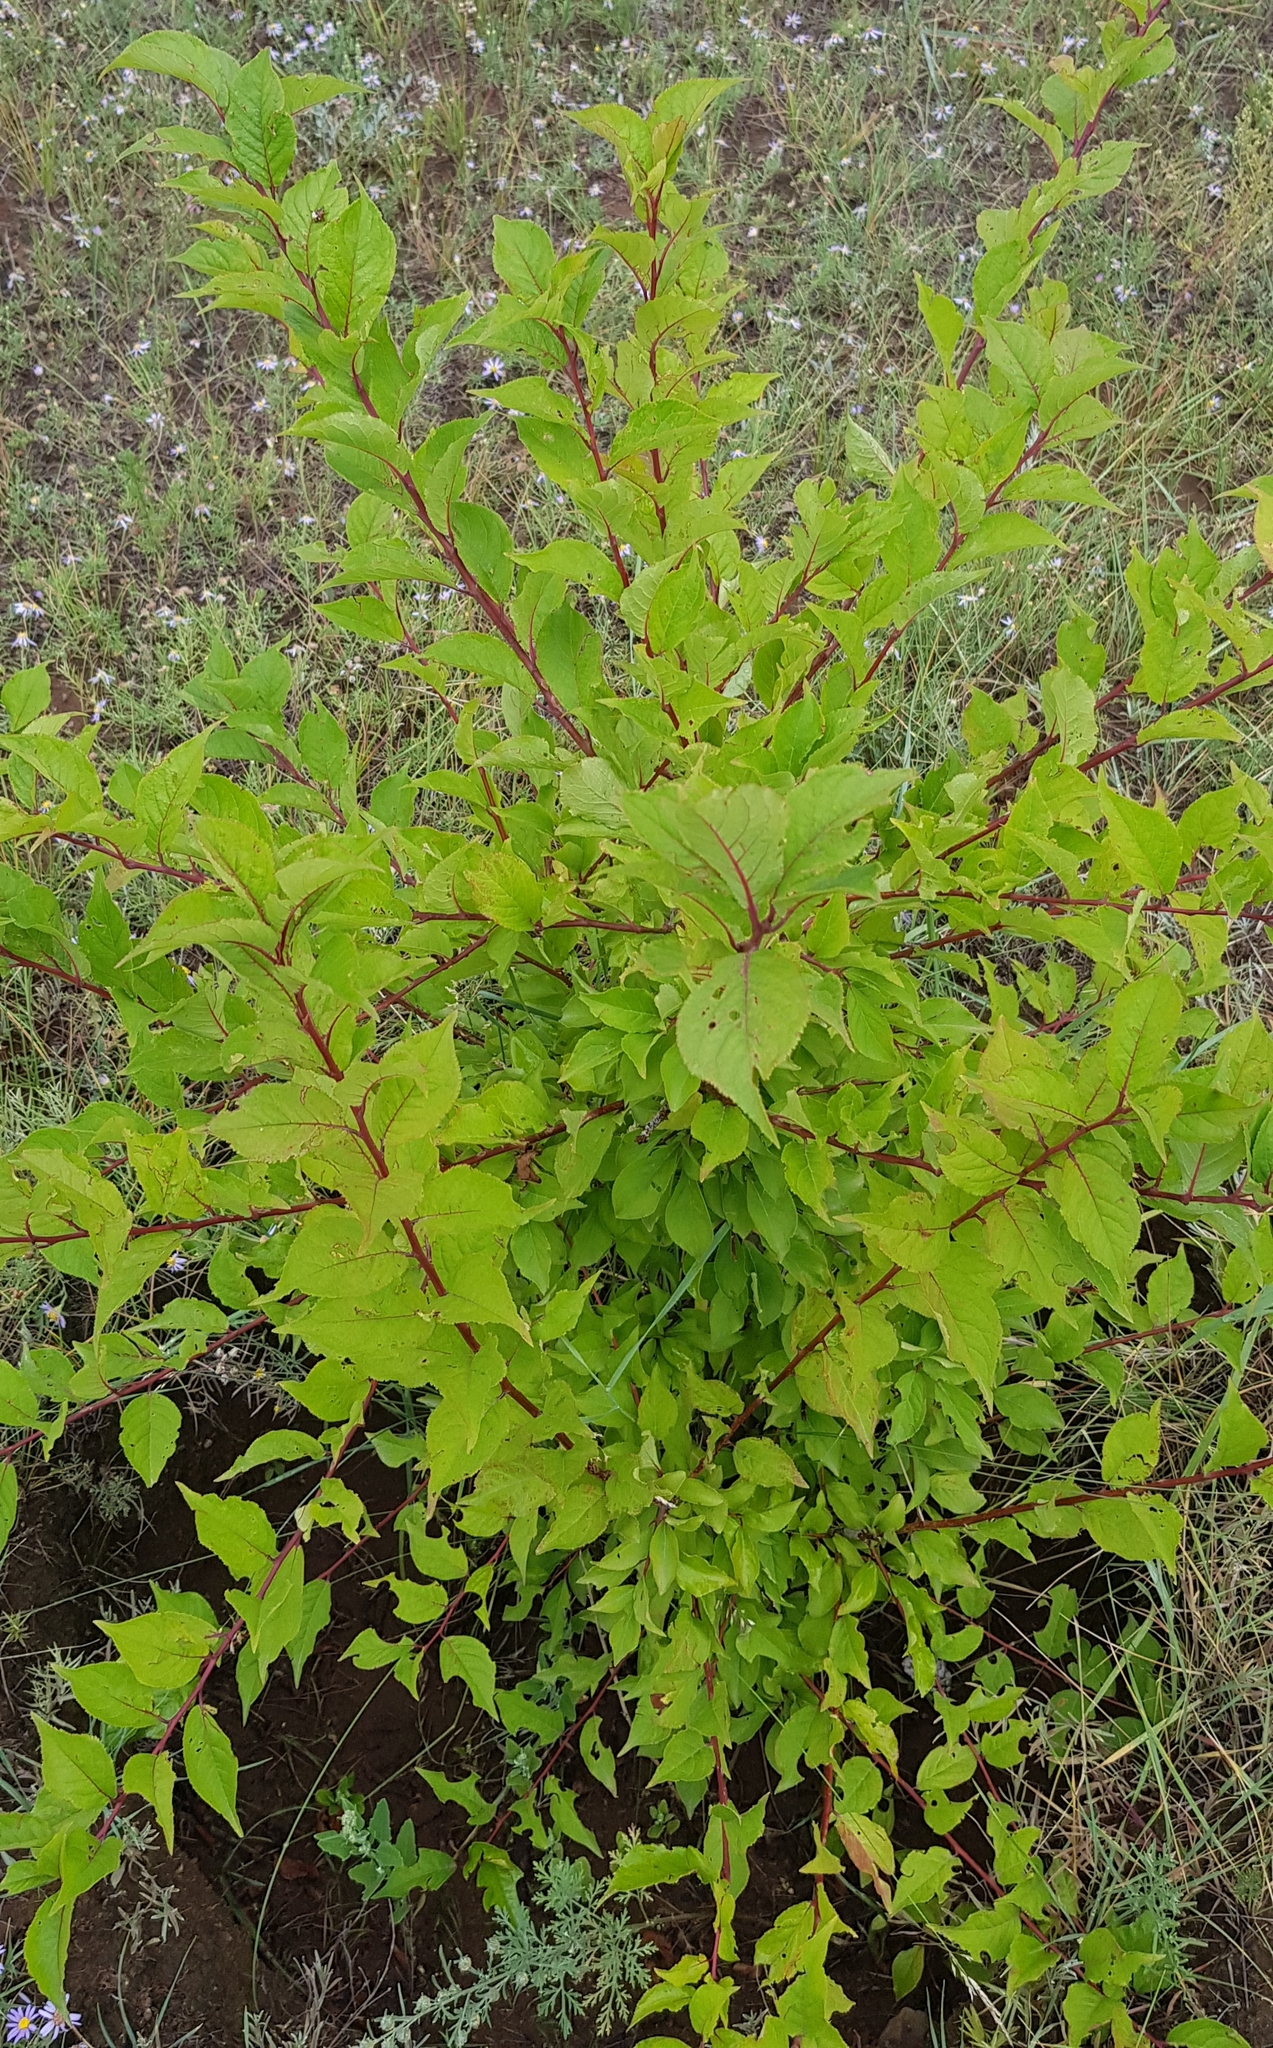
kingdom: Plantae
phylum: Tracheophyta
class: Magnoliopsida
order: Rosales
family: Rosaceae
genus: Prunus
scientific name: Prunus serotina
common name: Black cherry
